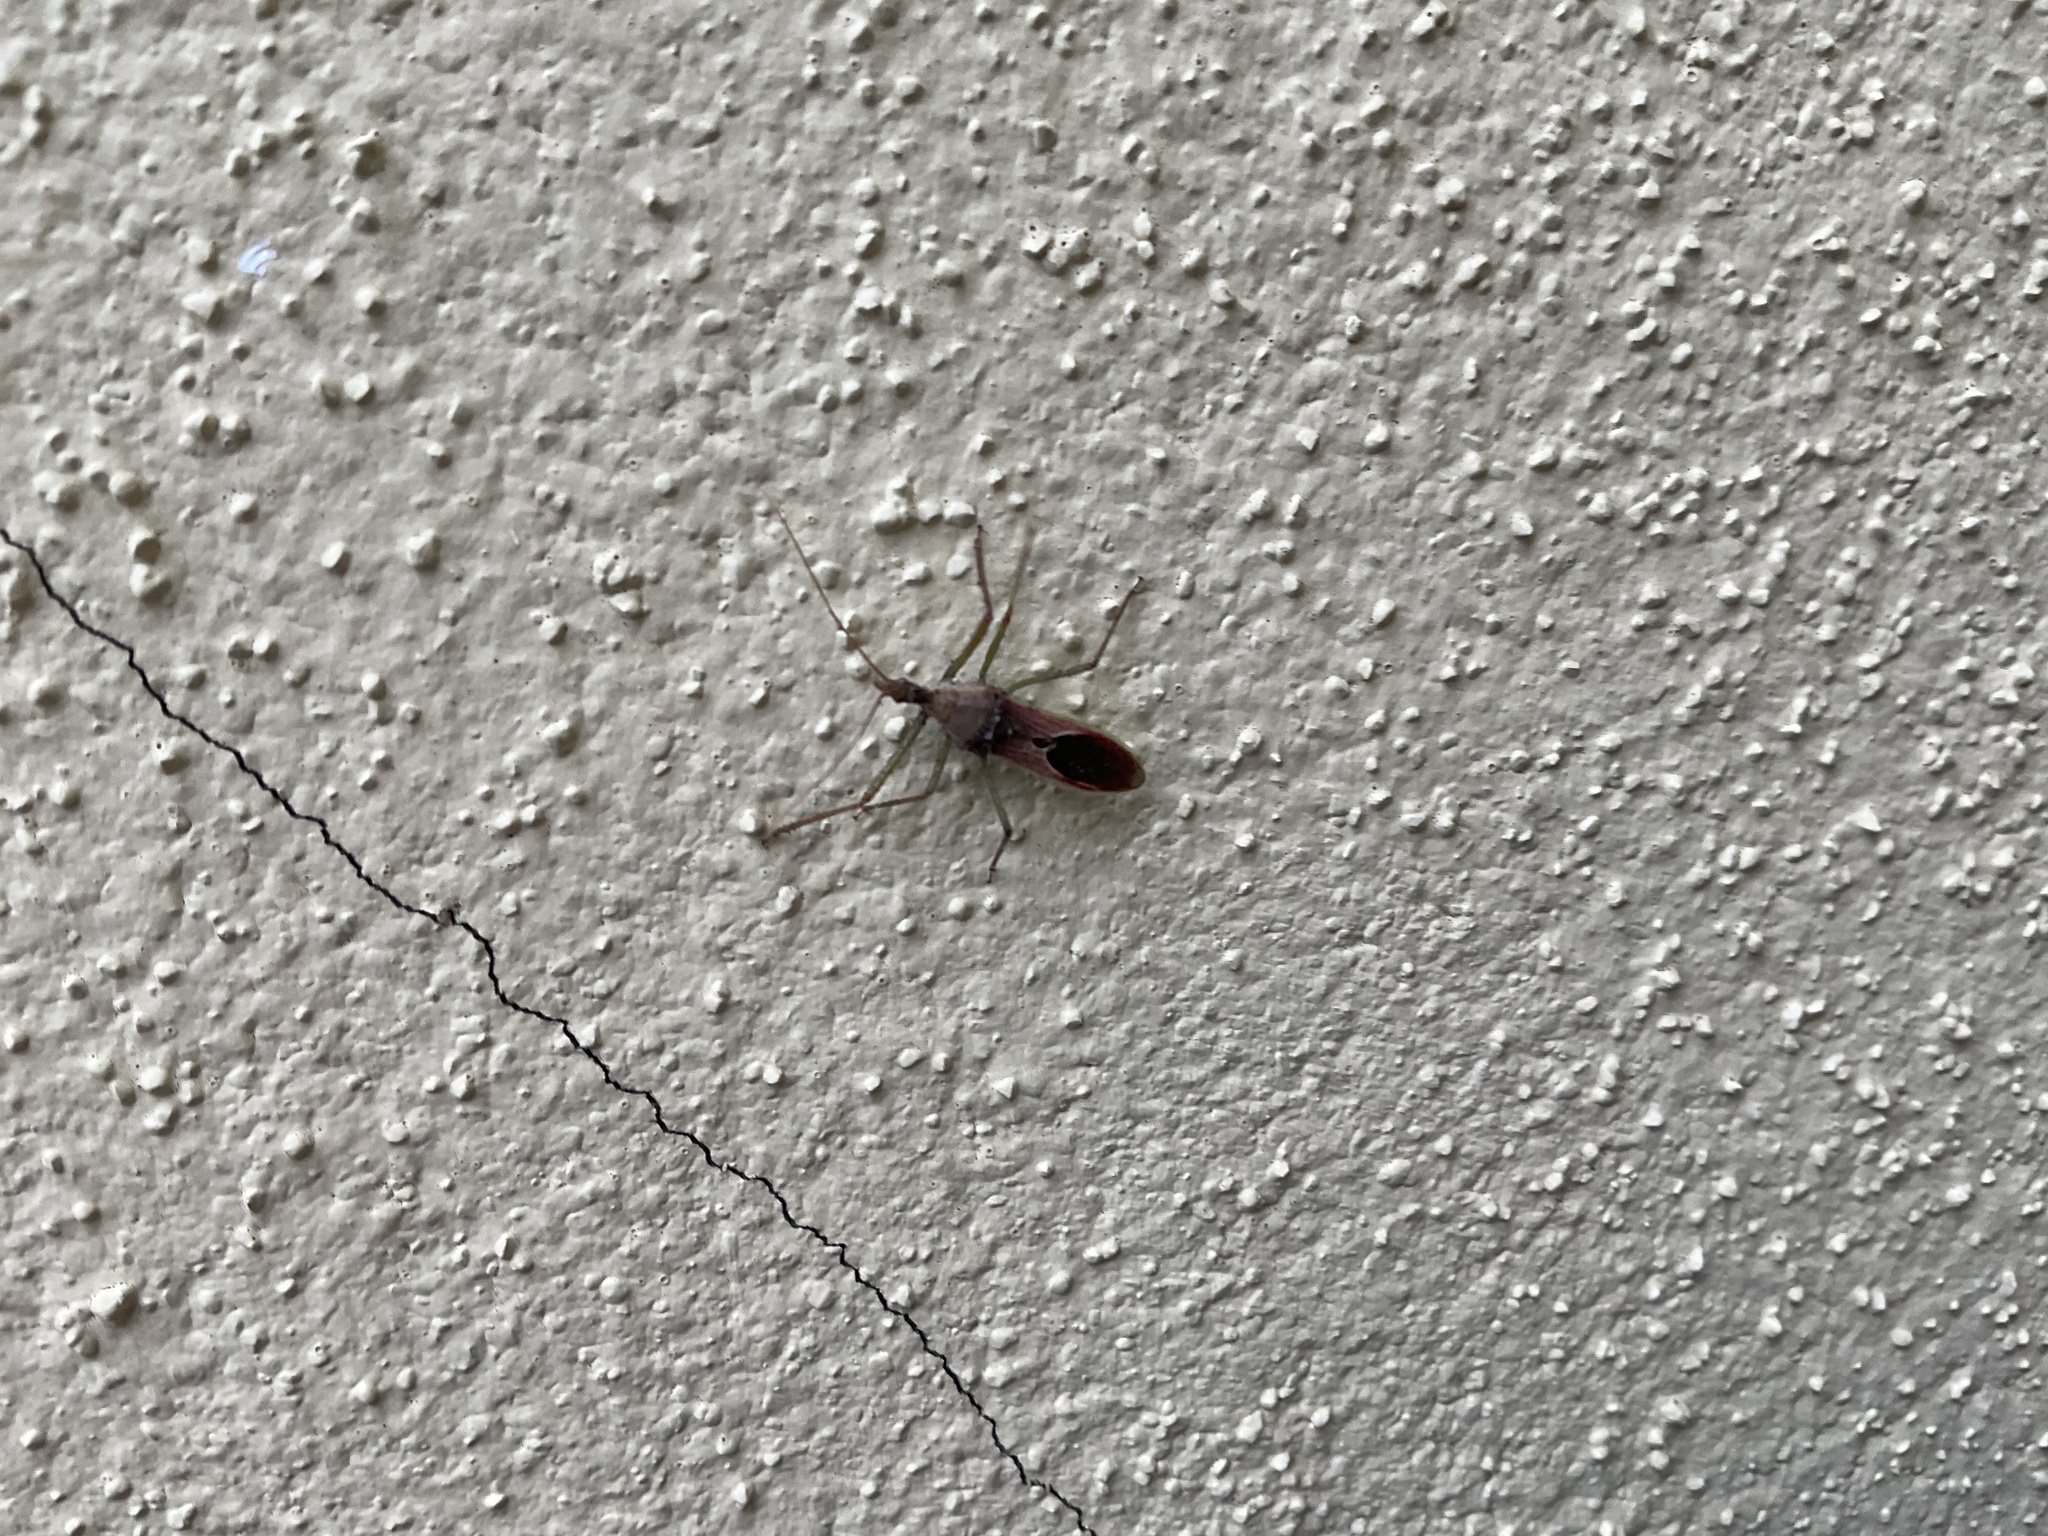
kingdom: Animalia
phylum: Arthropoda
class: Insecta
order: Hemiptera
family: Reduviidae
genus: Zelus
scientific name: Zelus renardii
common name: Assassin bug
